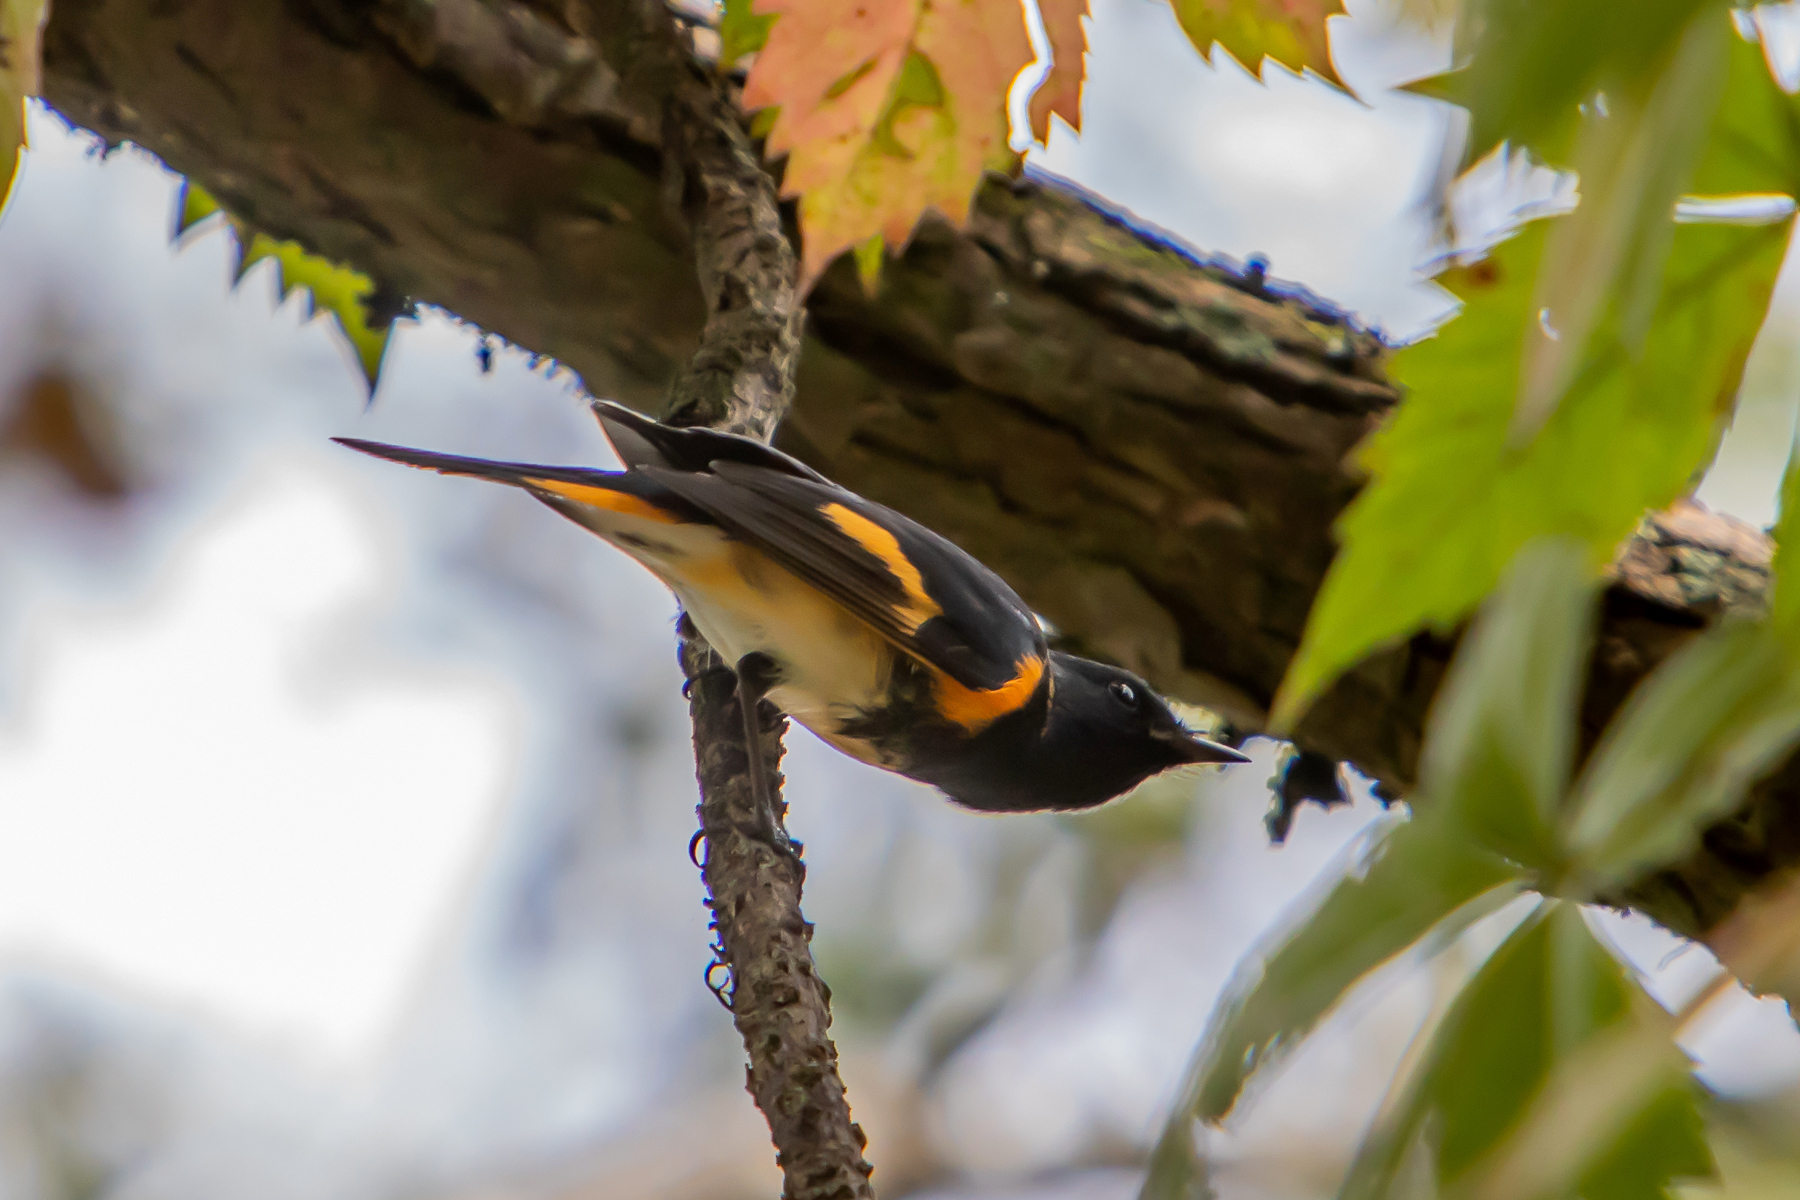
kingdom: Animalia
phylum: Chordata
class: Aves
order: Passeriformes
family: Parulidae
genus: Setophaga
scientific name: Setophaga ruticilla
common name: American redstart
